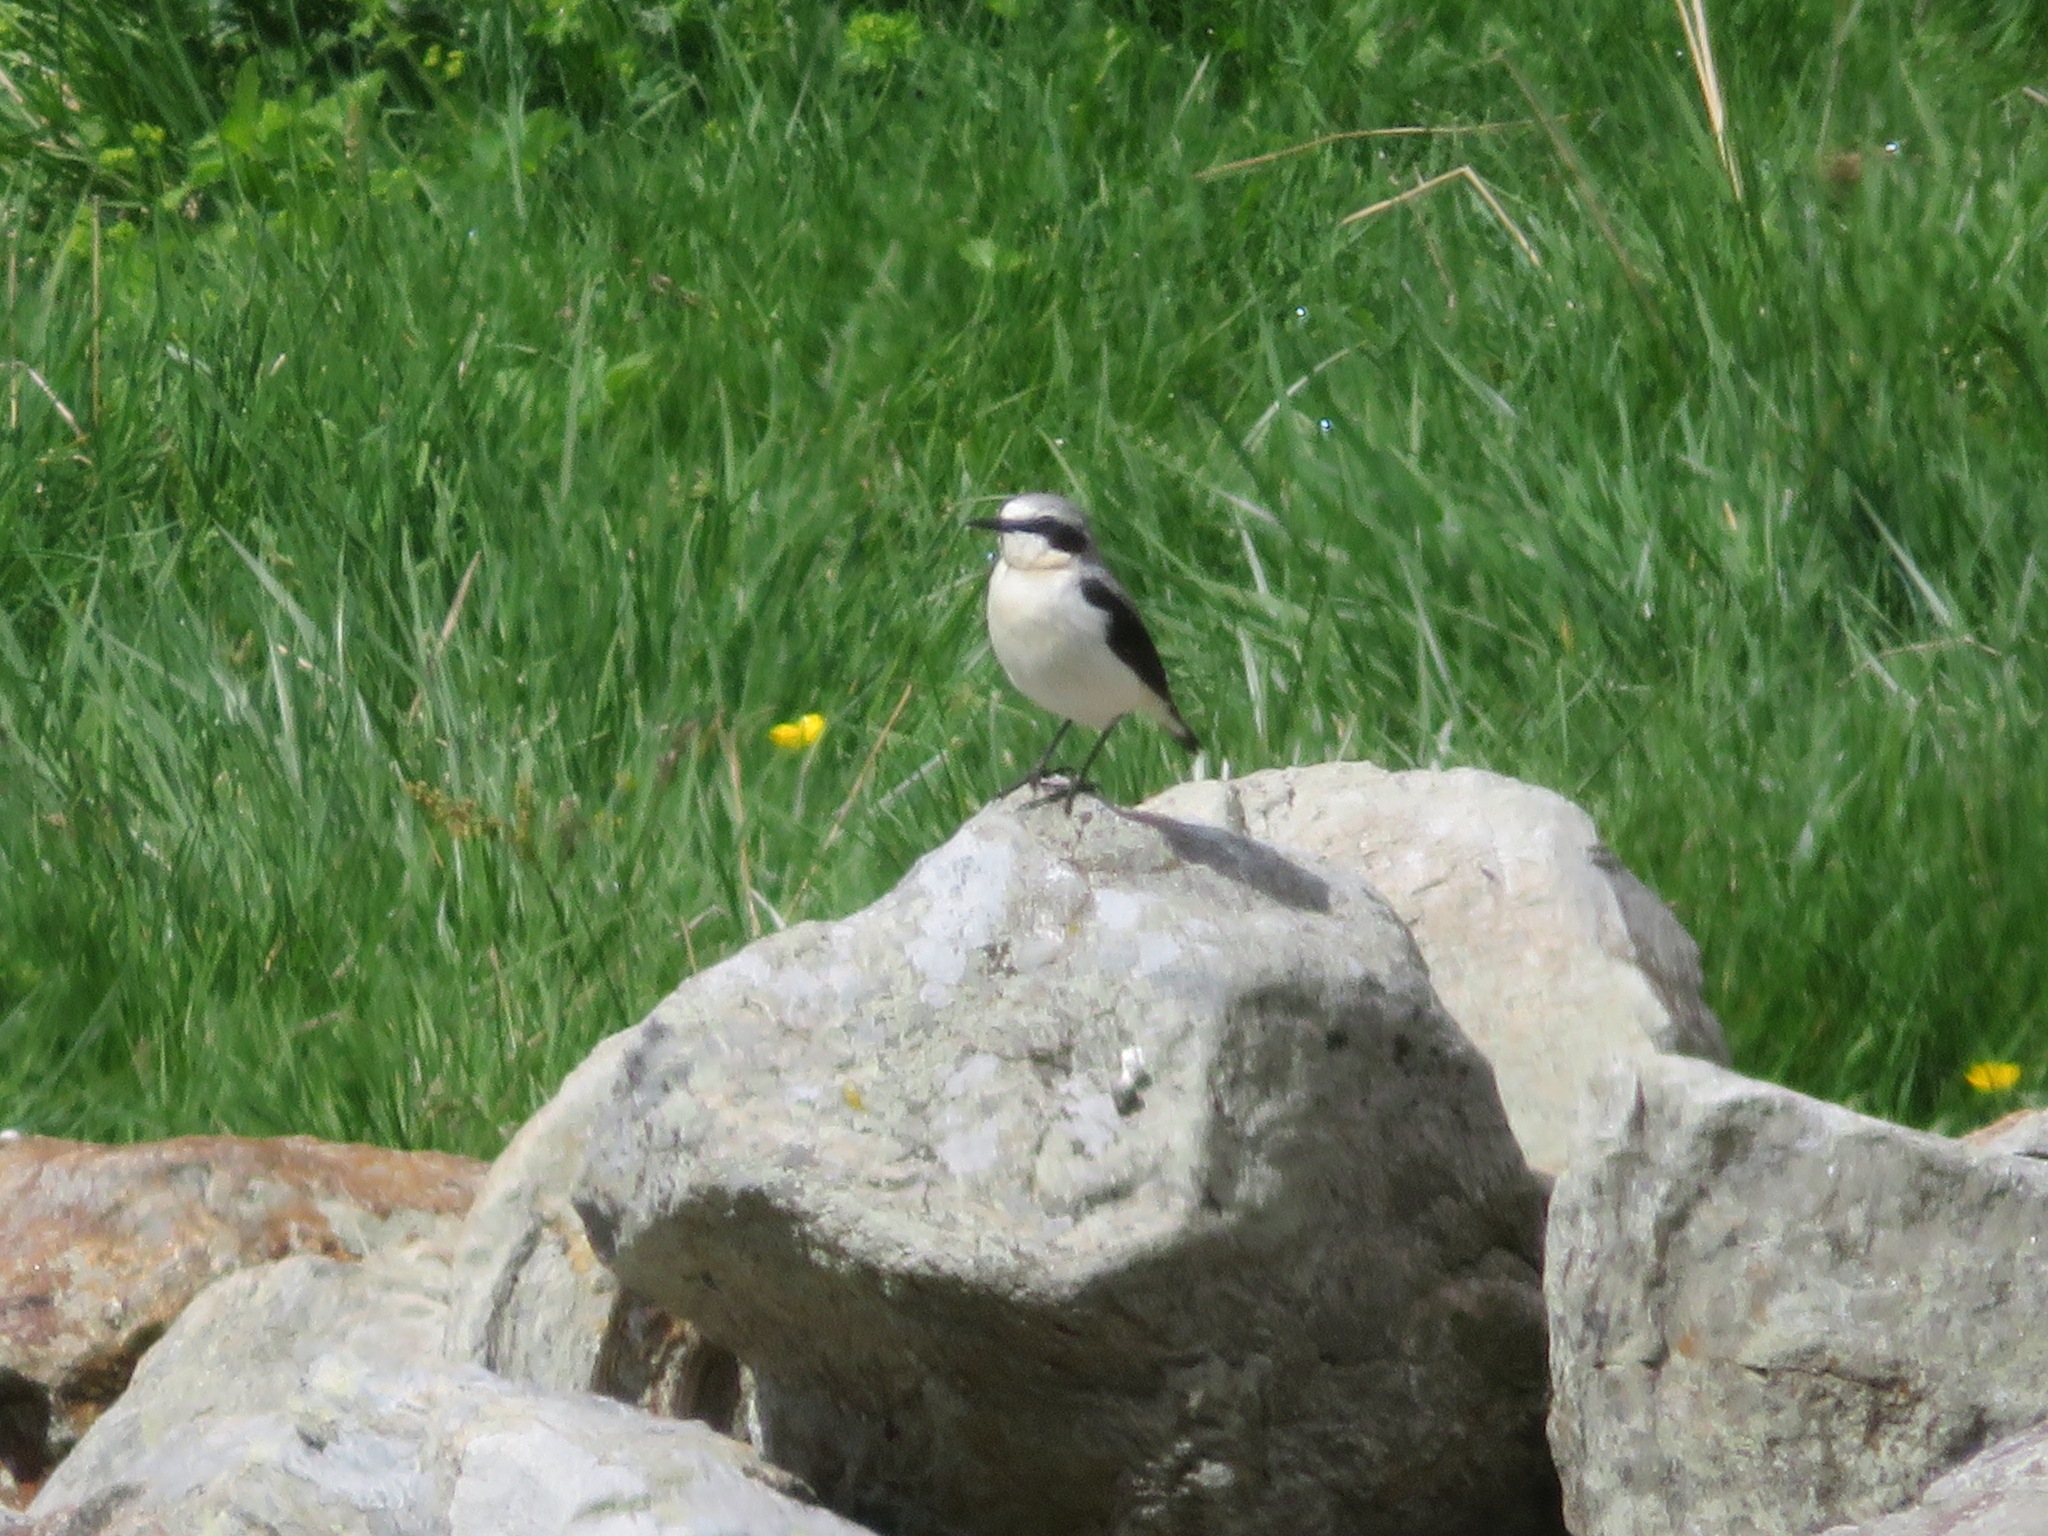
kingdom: Animalia
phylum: Chordata
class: Aves
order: Passeriformes
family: Muscicapidae
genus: Oenanthe
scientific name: Oenanthe oenanthe
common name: Northern wheatear
